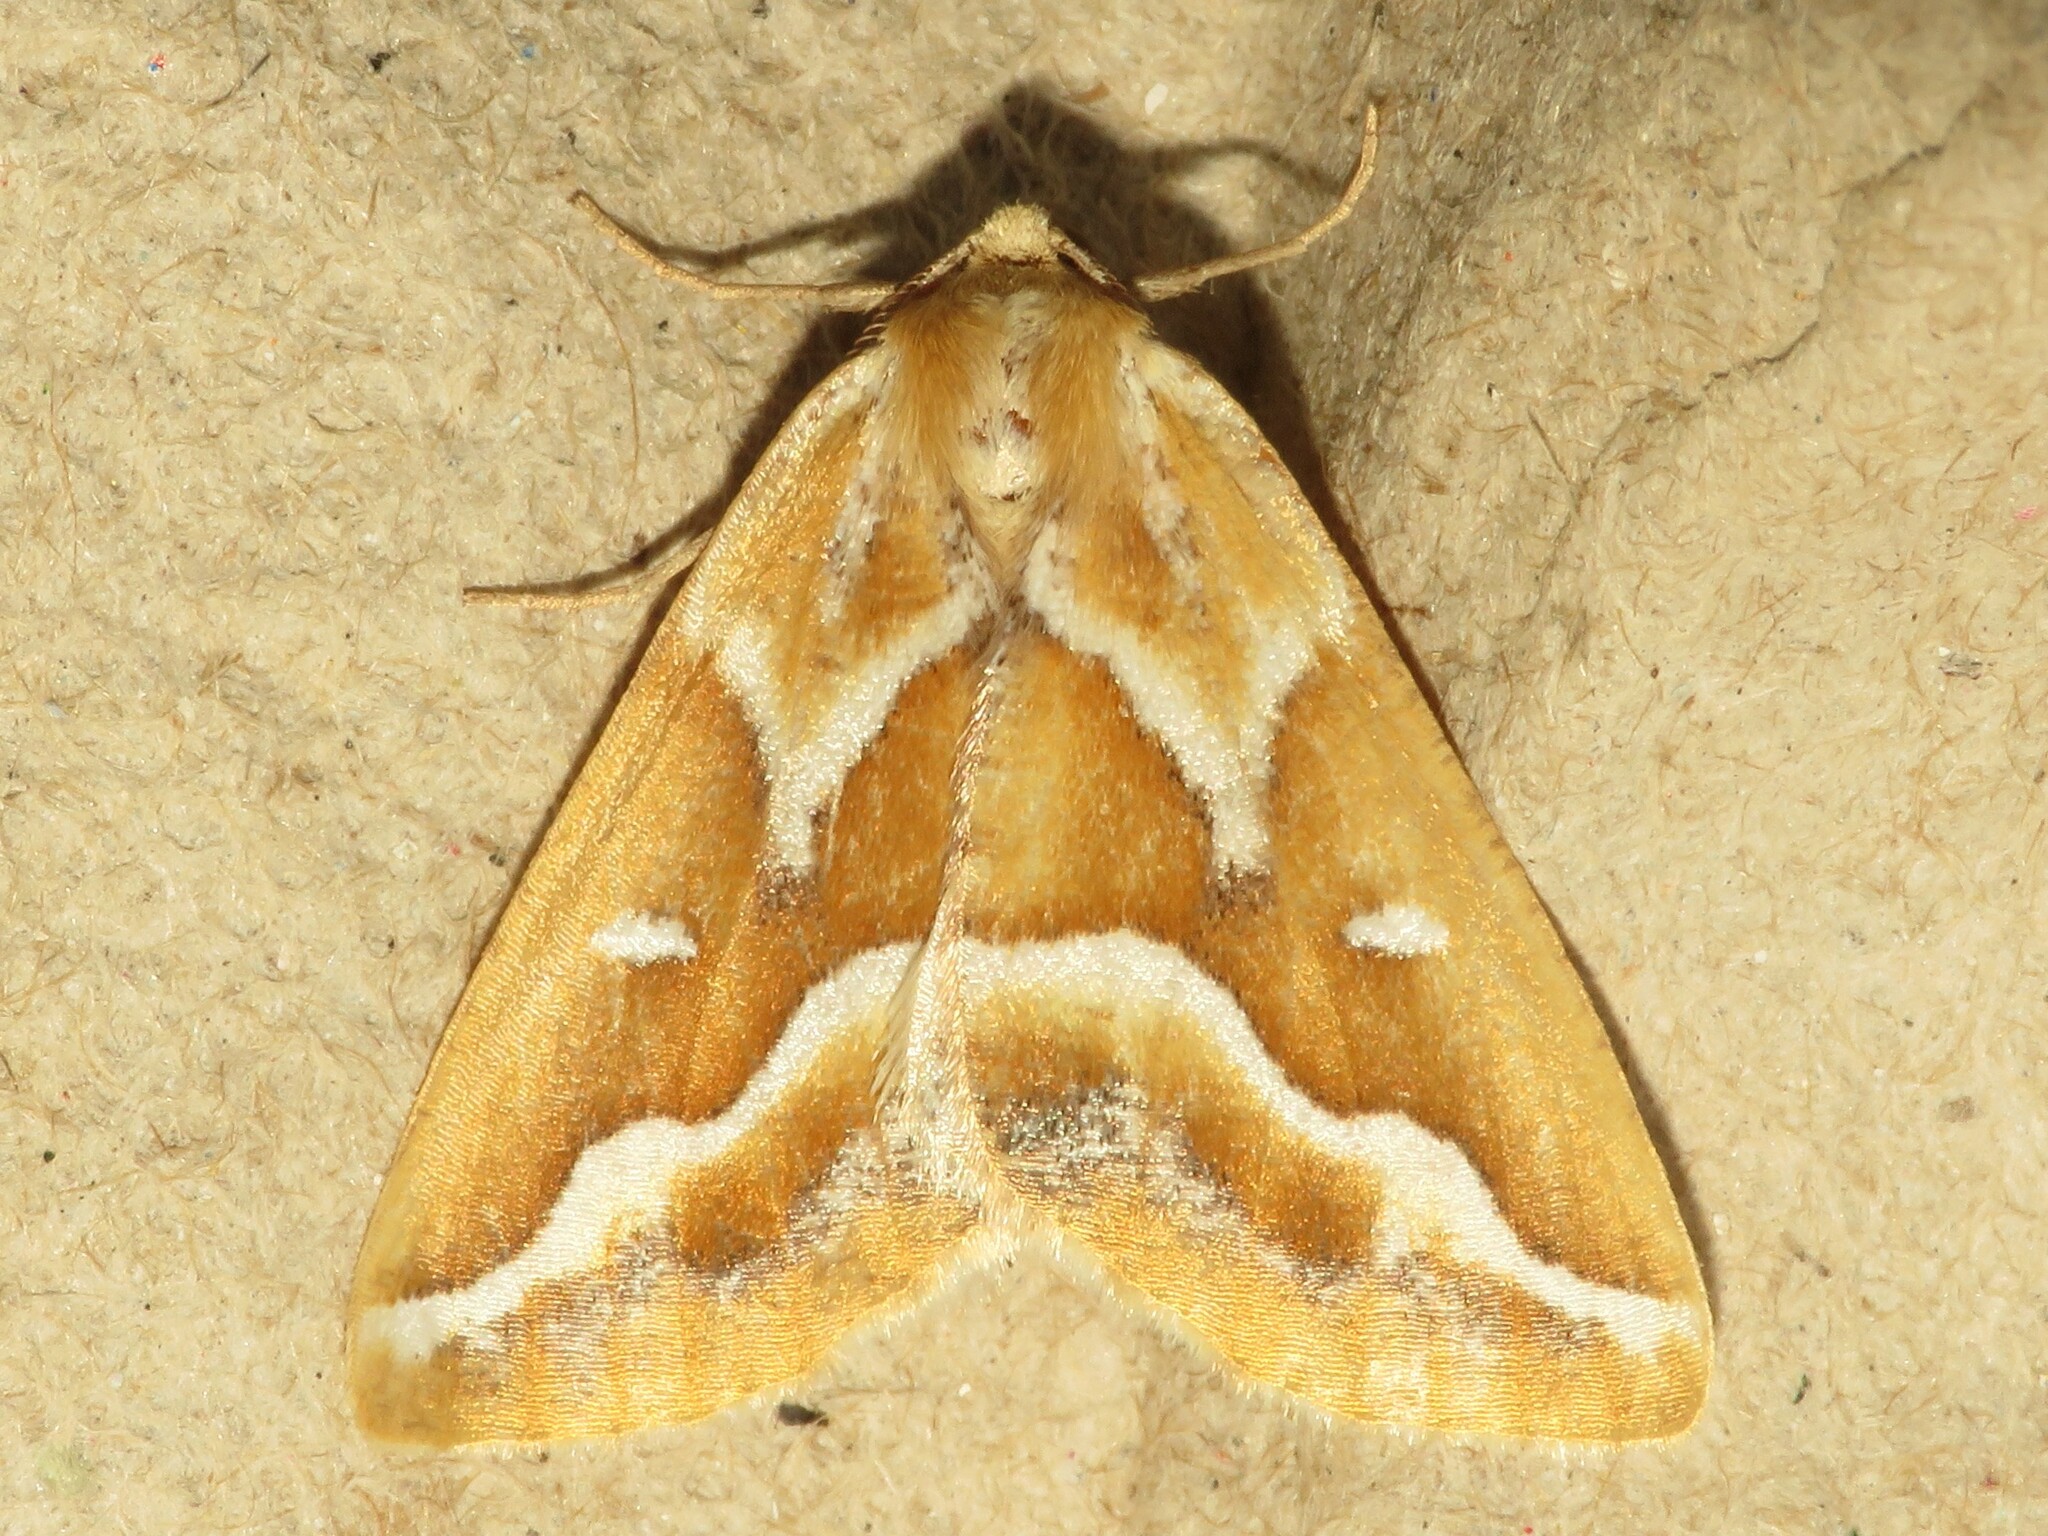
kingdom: Animalia
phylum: Arthropoda
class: Insecta
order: Lepidoptera
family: Geometridae
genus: Caripeta
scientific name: Caripeta angustiorata
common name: Brown pine looper
